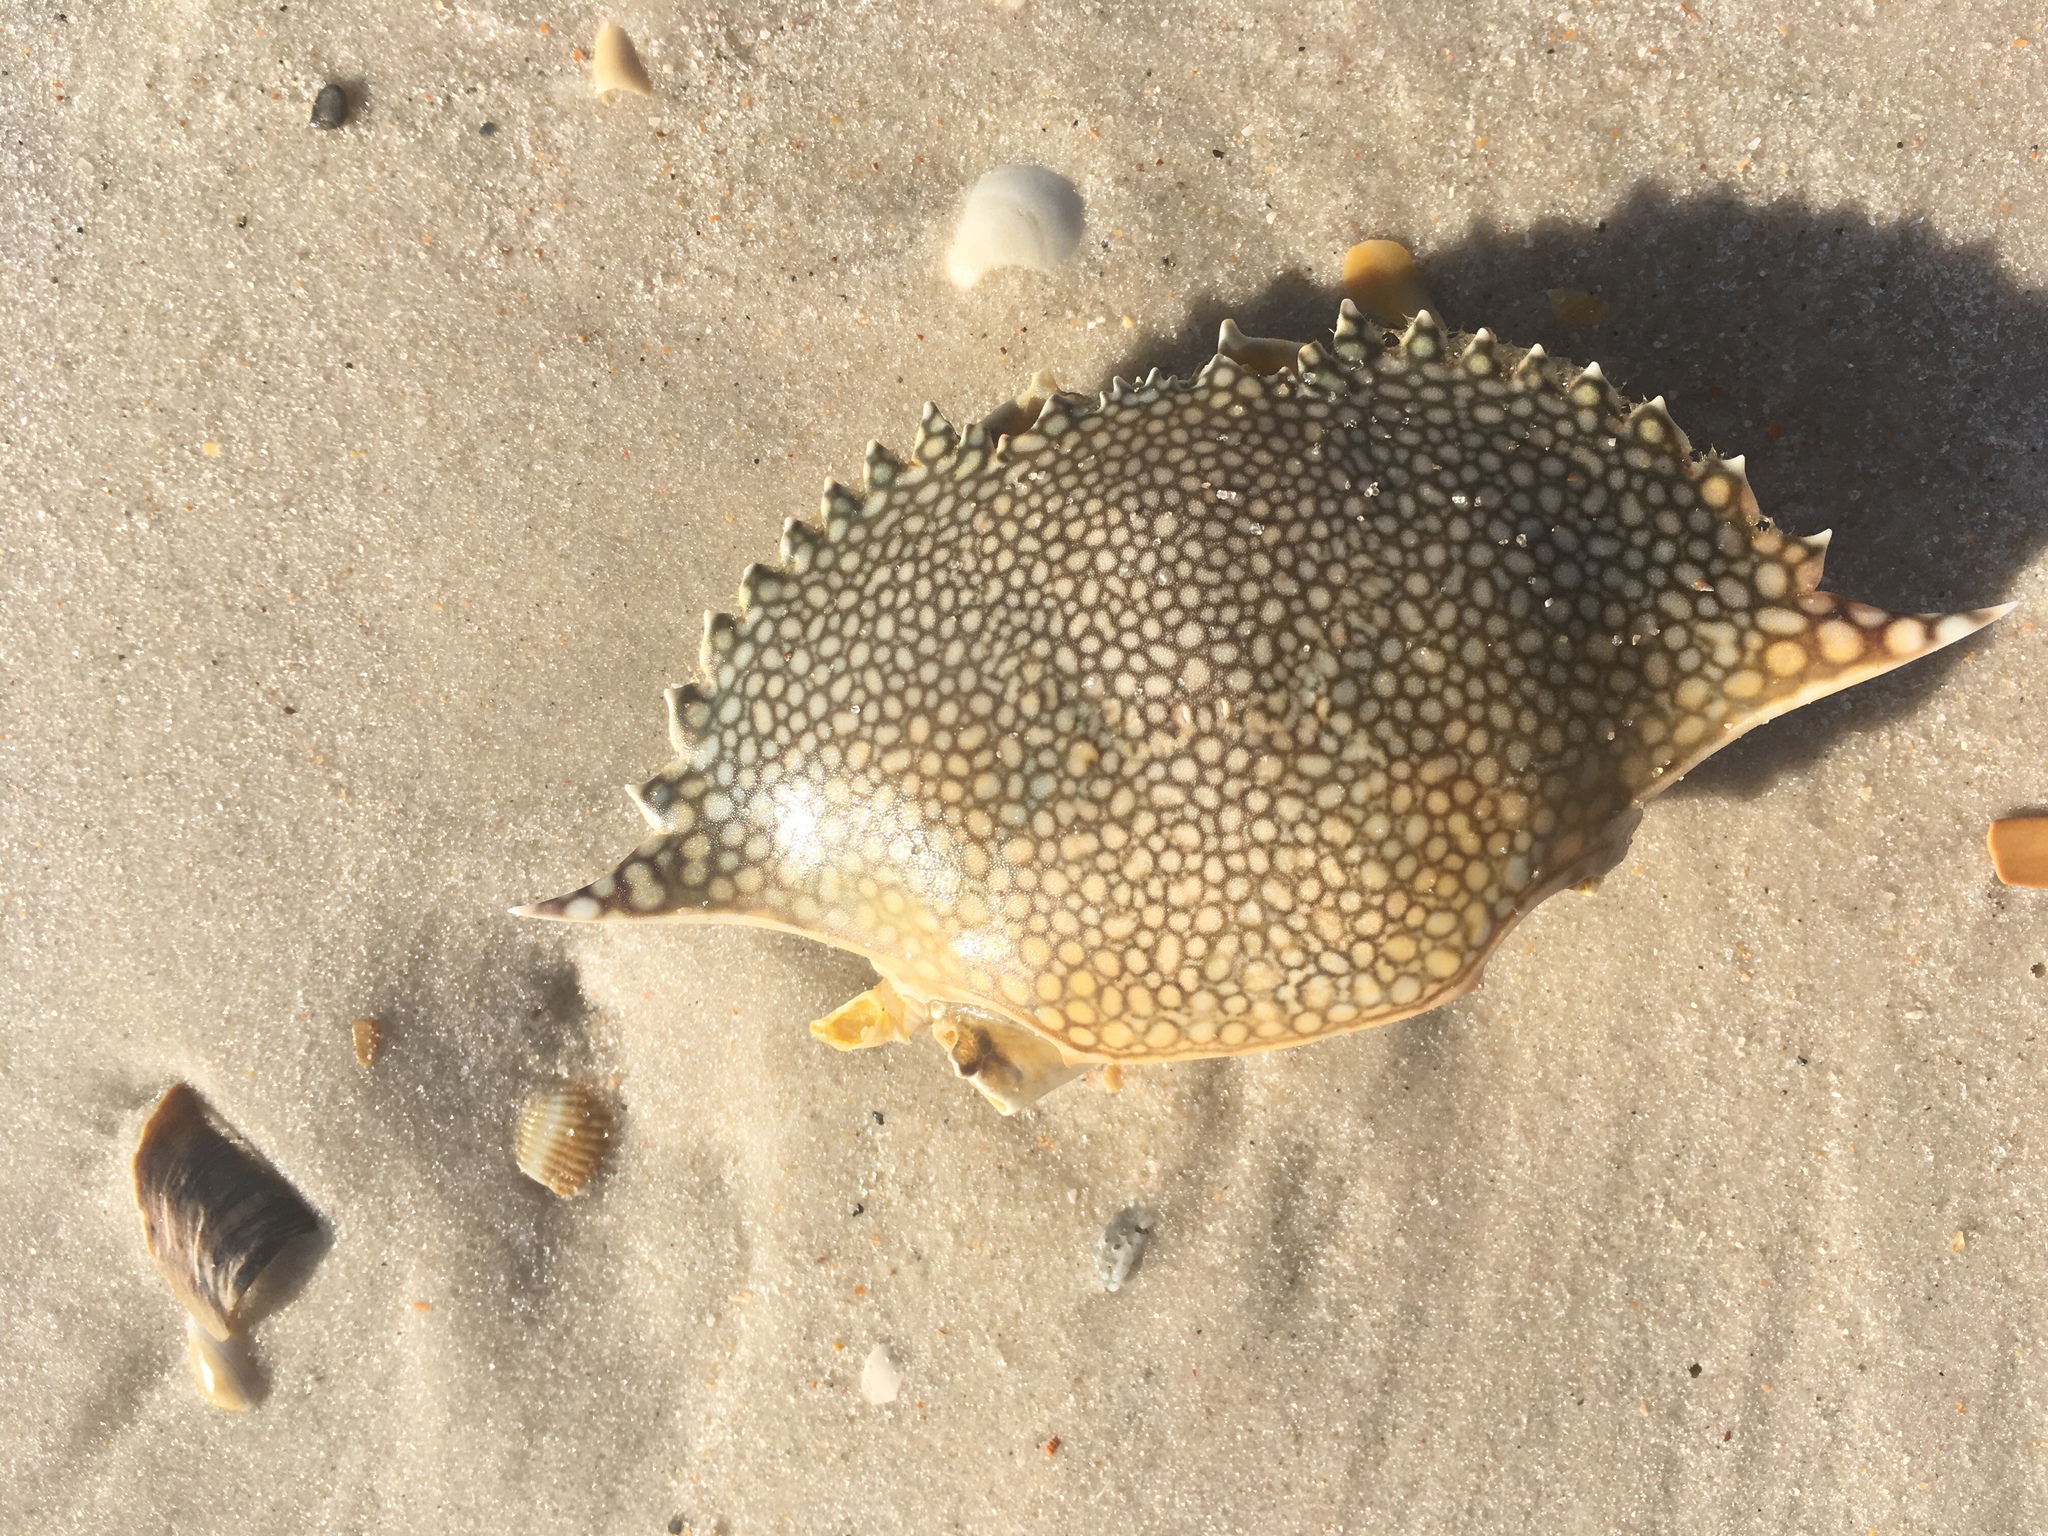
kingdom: Animalia
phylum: Arthropoda
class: Malacostraca
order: Decapoda
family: Portunidae
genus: Arenaeus
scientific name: Arenaeus cribrarius
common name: Speckled crab
